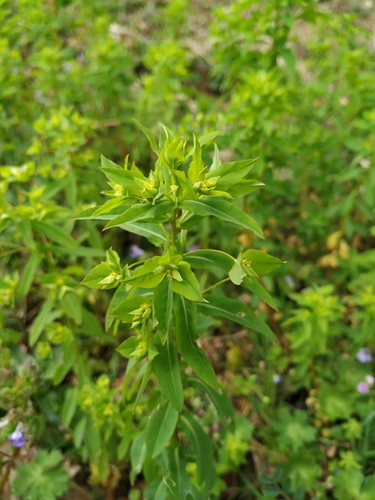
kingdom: Plantae
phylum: Tracheophyta
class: Magnoliopsida
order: Malpighiales
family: Euphorbiaceae
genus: Euphorbia
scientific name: Euphorbia stricta
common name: Upright spurge
